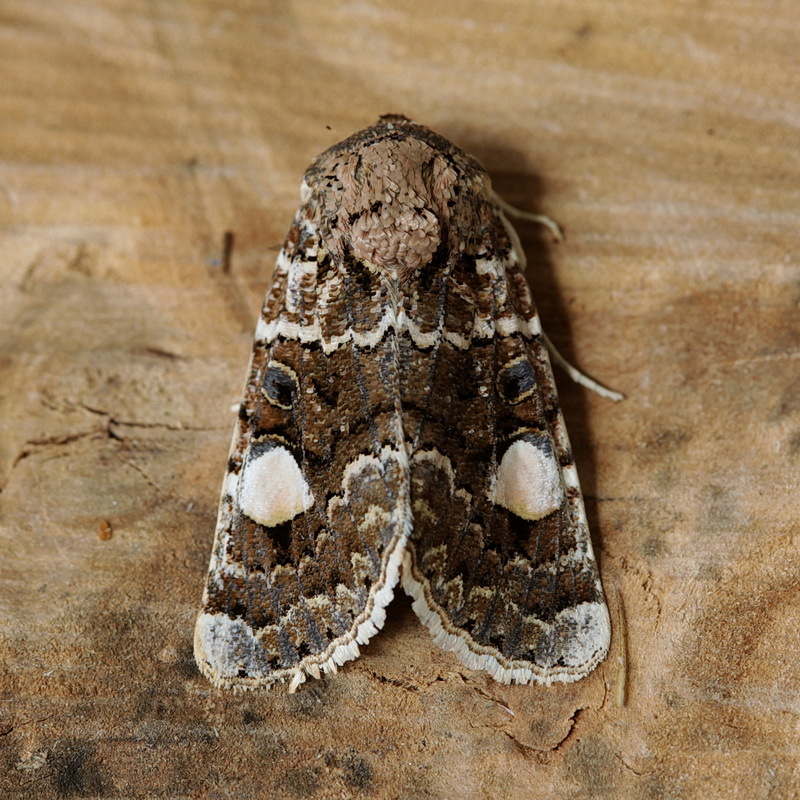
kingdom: Animalia
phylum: Arthropoda
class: Insecta
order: Lepidoptera
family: Noctuidae
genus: Oxytripia
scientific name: Oxytripia orbiculosa
